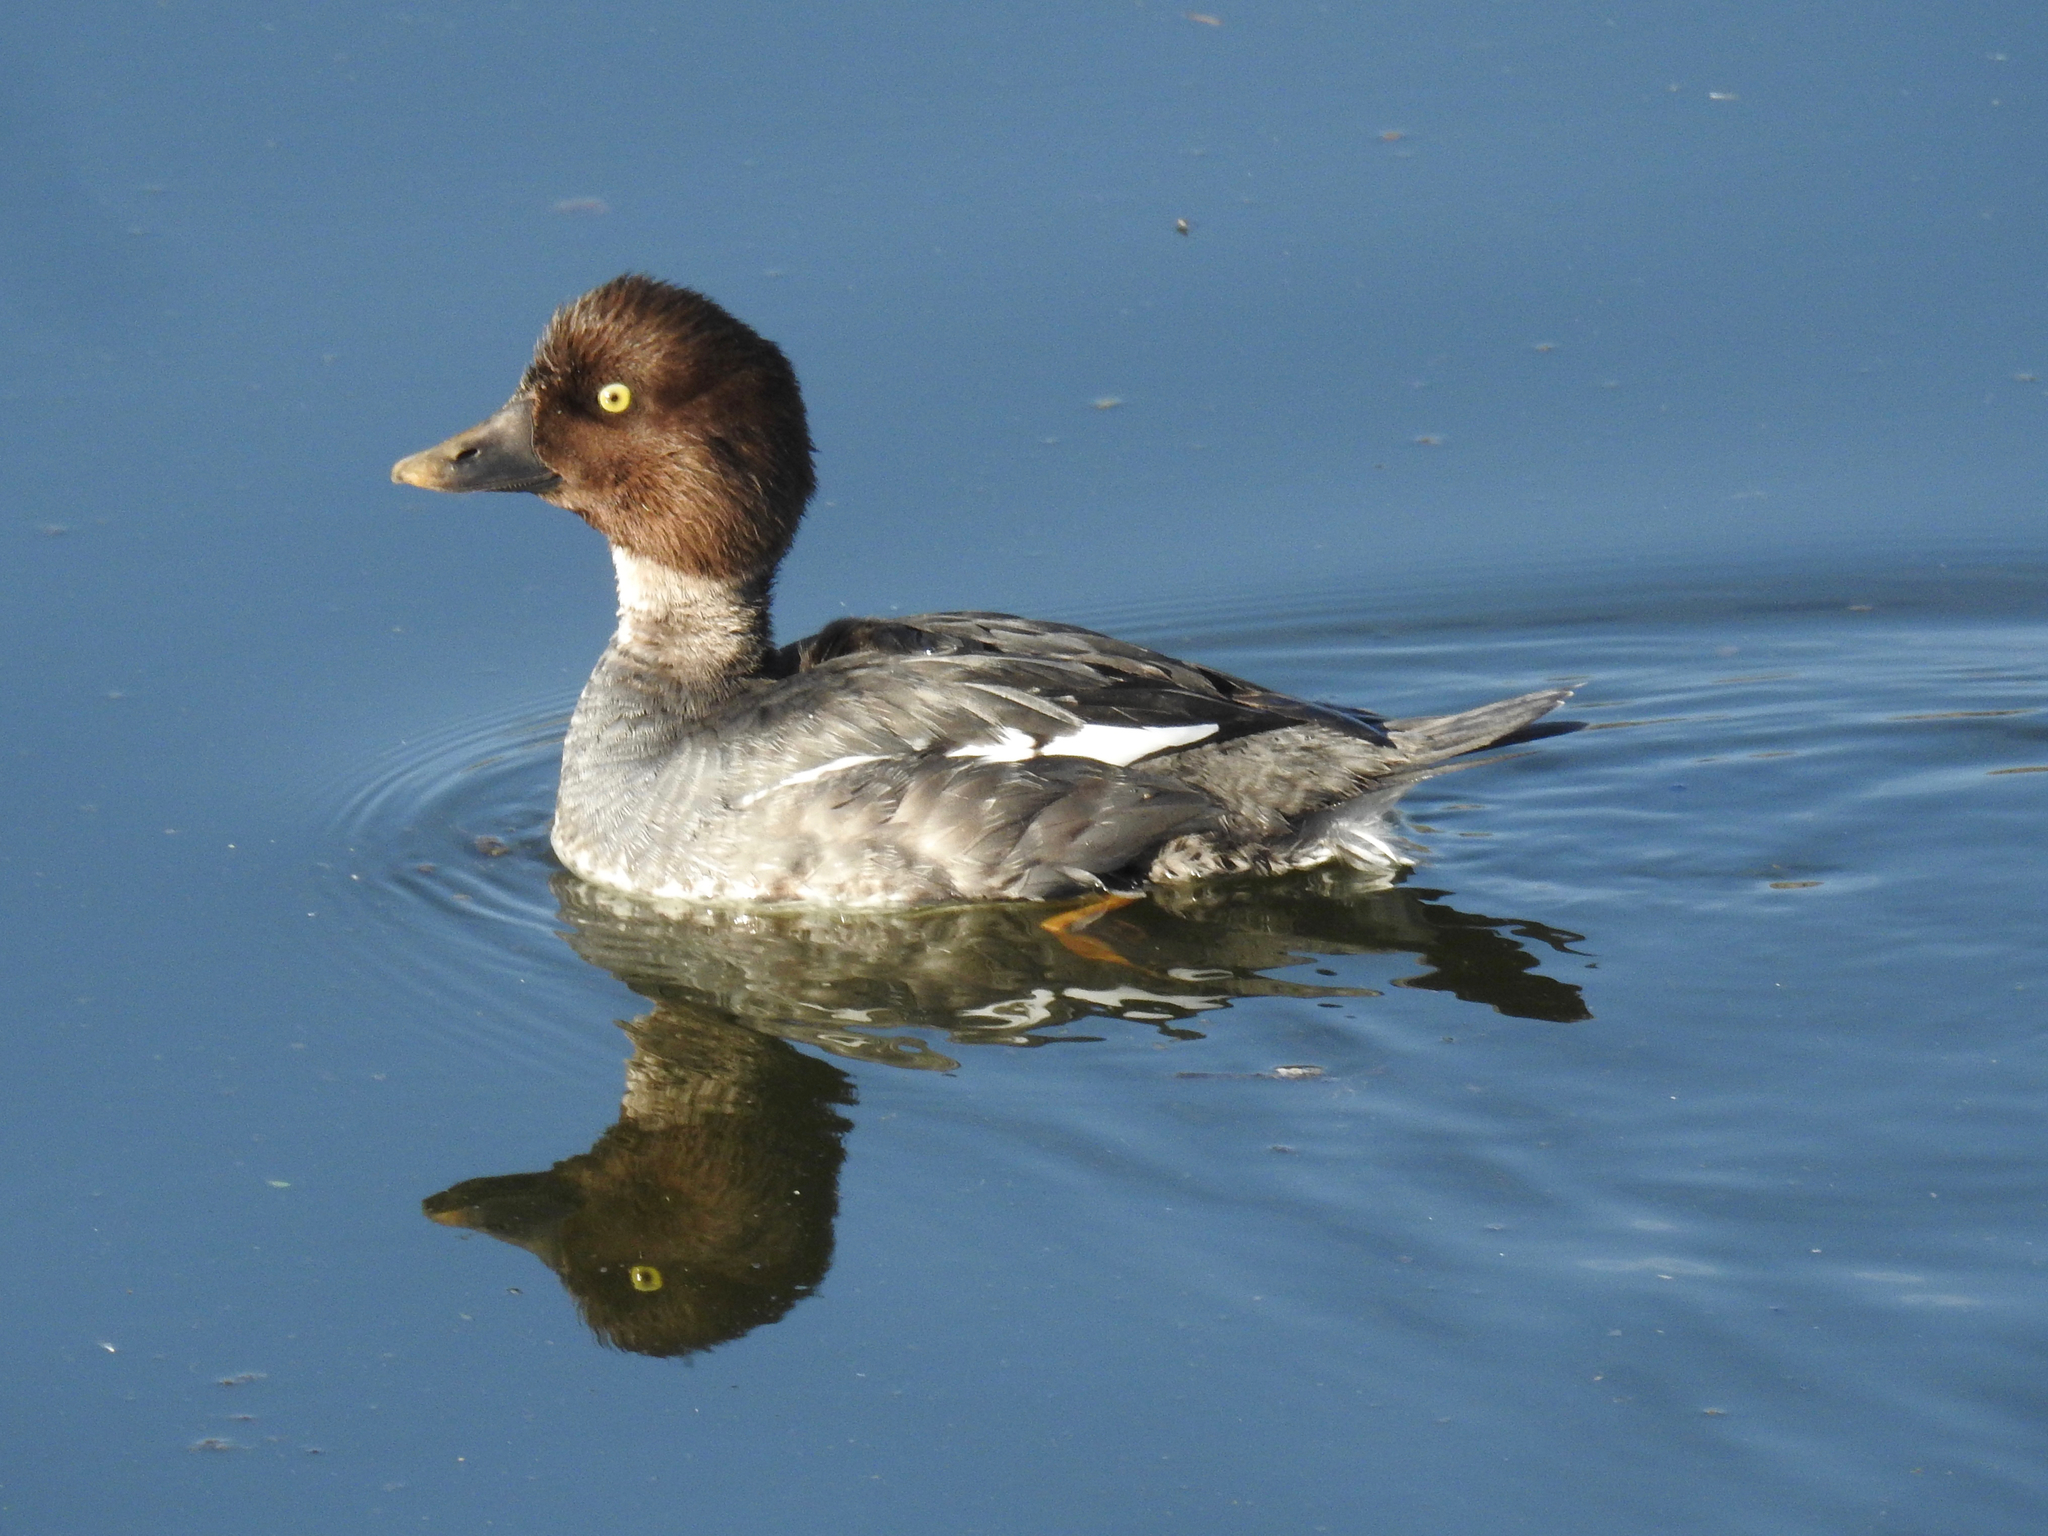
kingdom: Animalia
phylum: Chordata
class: Aves
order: Anseriformes
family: Anatidae
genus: Bucephala
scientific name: Bucephala clangula
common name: Common goldeneye
